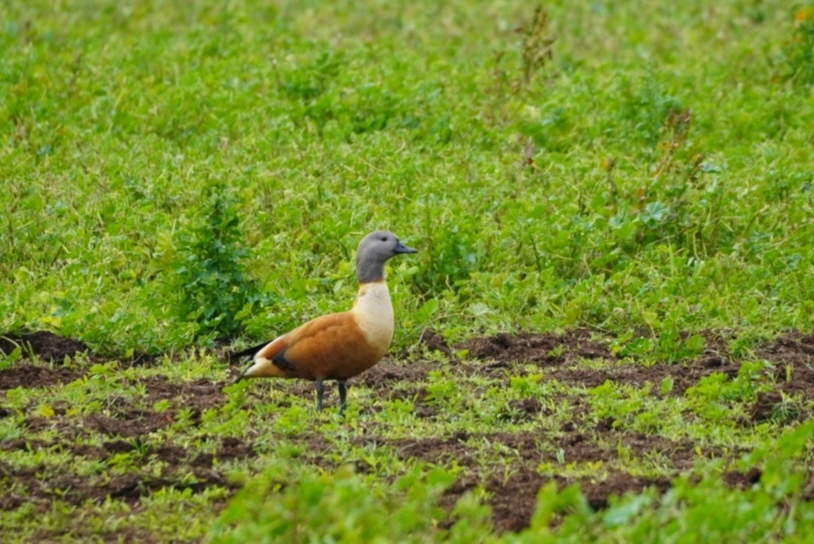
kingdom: Animalia
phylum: Chordata
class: Aves
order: Anseriformes
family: Anatidae
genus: Tadorna
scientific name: Tadorna cana
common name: South african shelduck
